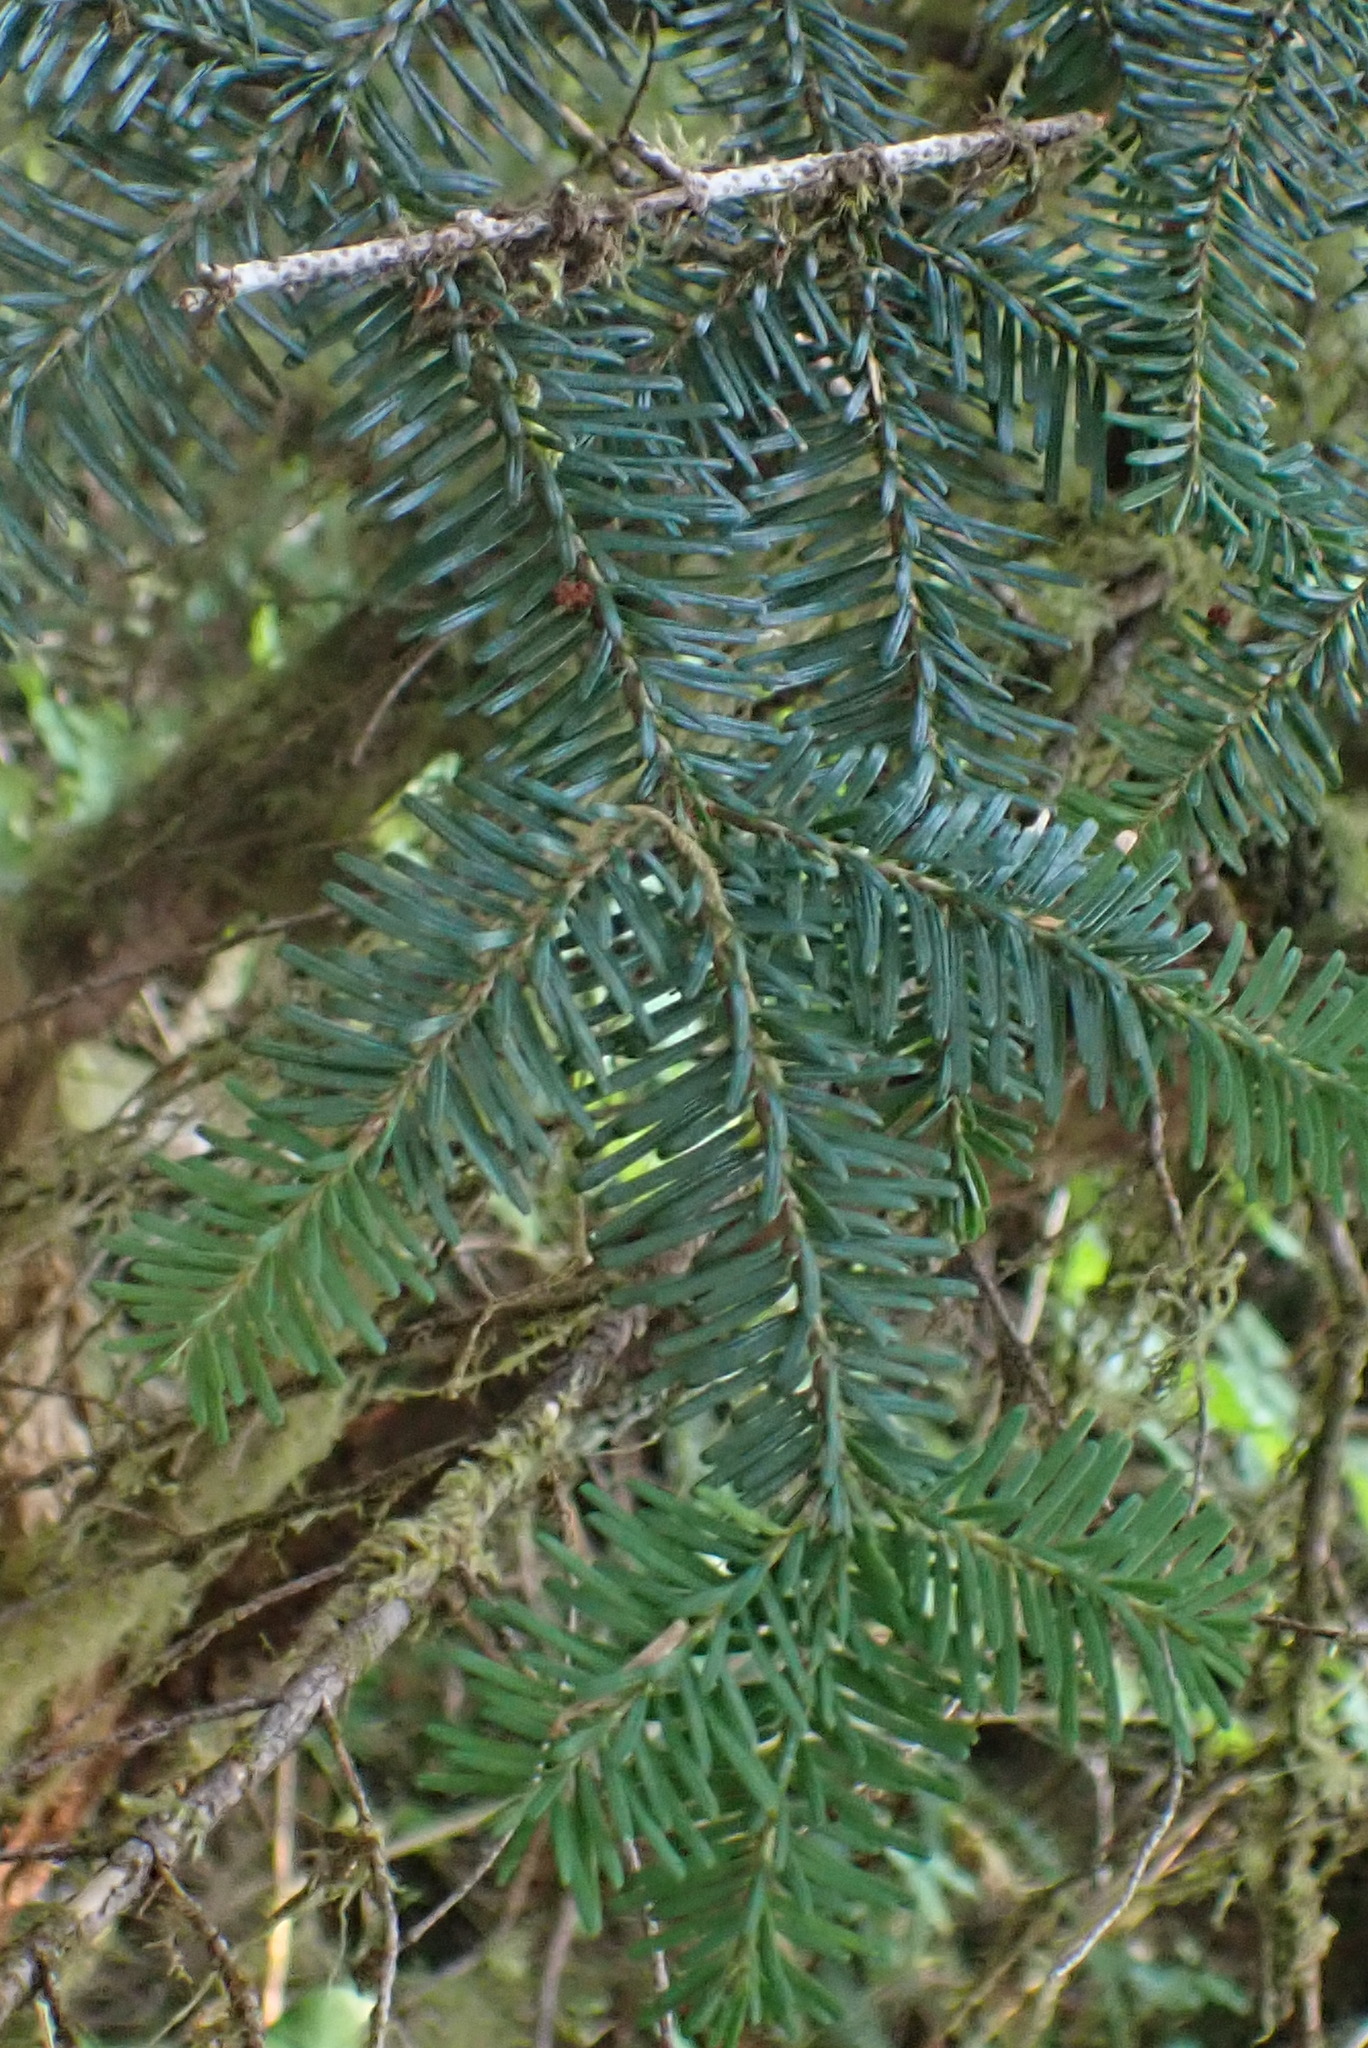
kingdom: Plantae
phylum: Tracheophyta
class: Pinopsida
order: Pinales
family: Pinaceae
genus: Abies
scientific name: Abies amabilis
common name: Pacific silver fir
